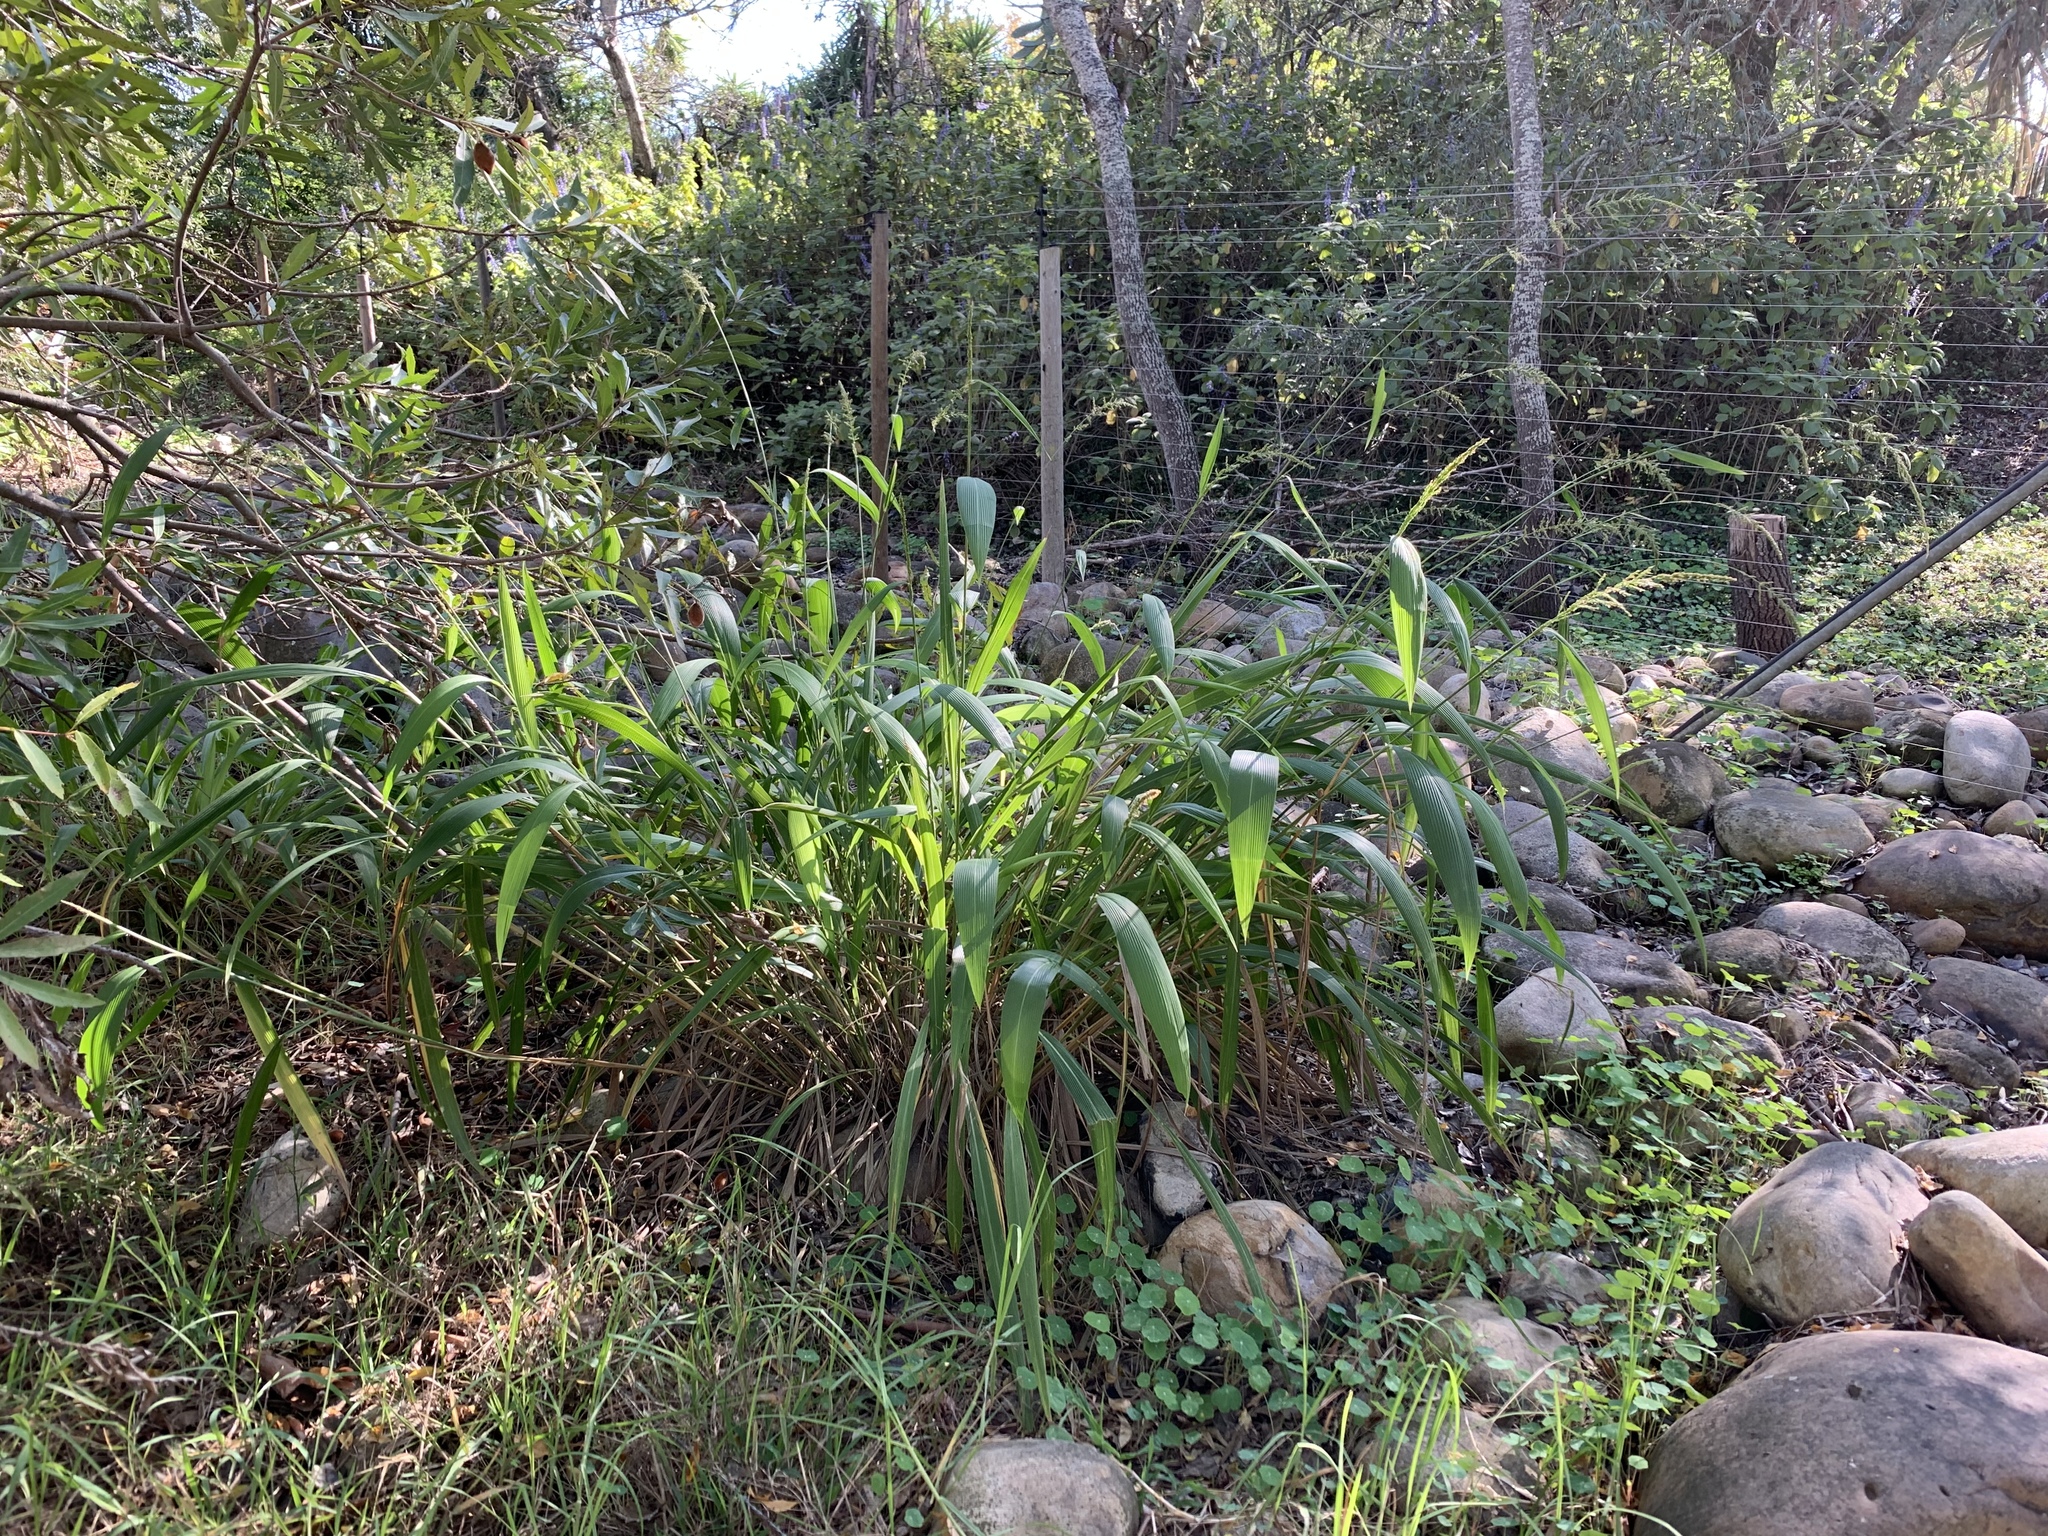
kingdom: Plantae
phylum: Tracheophyta
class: Liliopsida
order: Poales
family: Poaceae
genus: Setaria
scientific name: Setaria megaphylla
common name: Bigleaf bristlegrass
